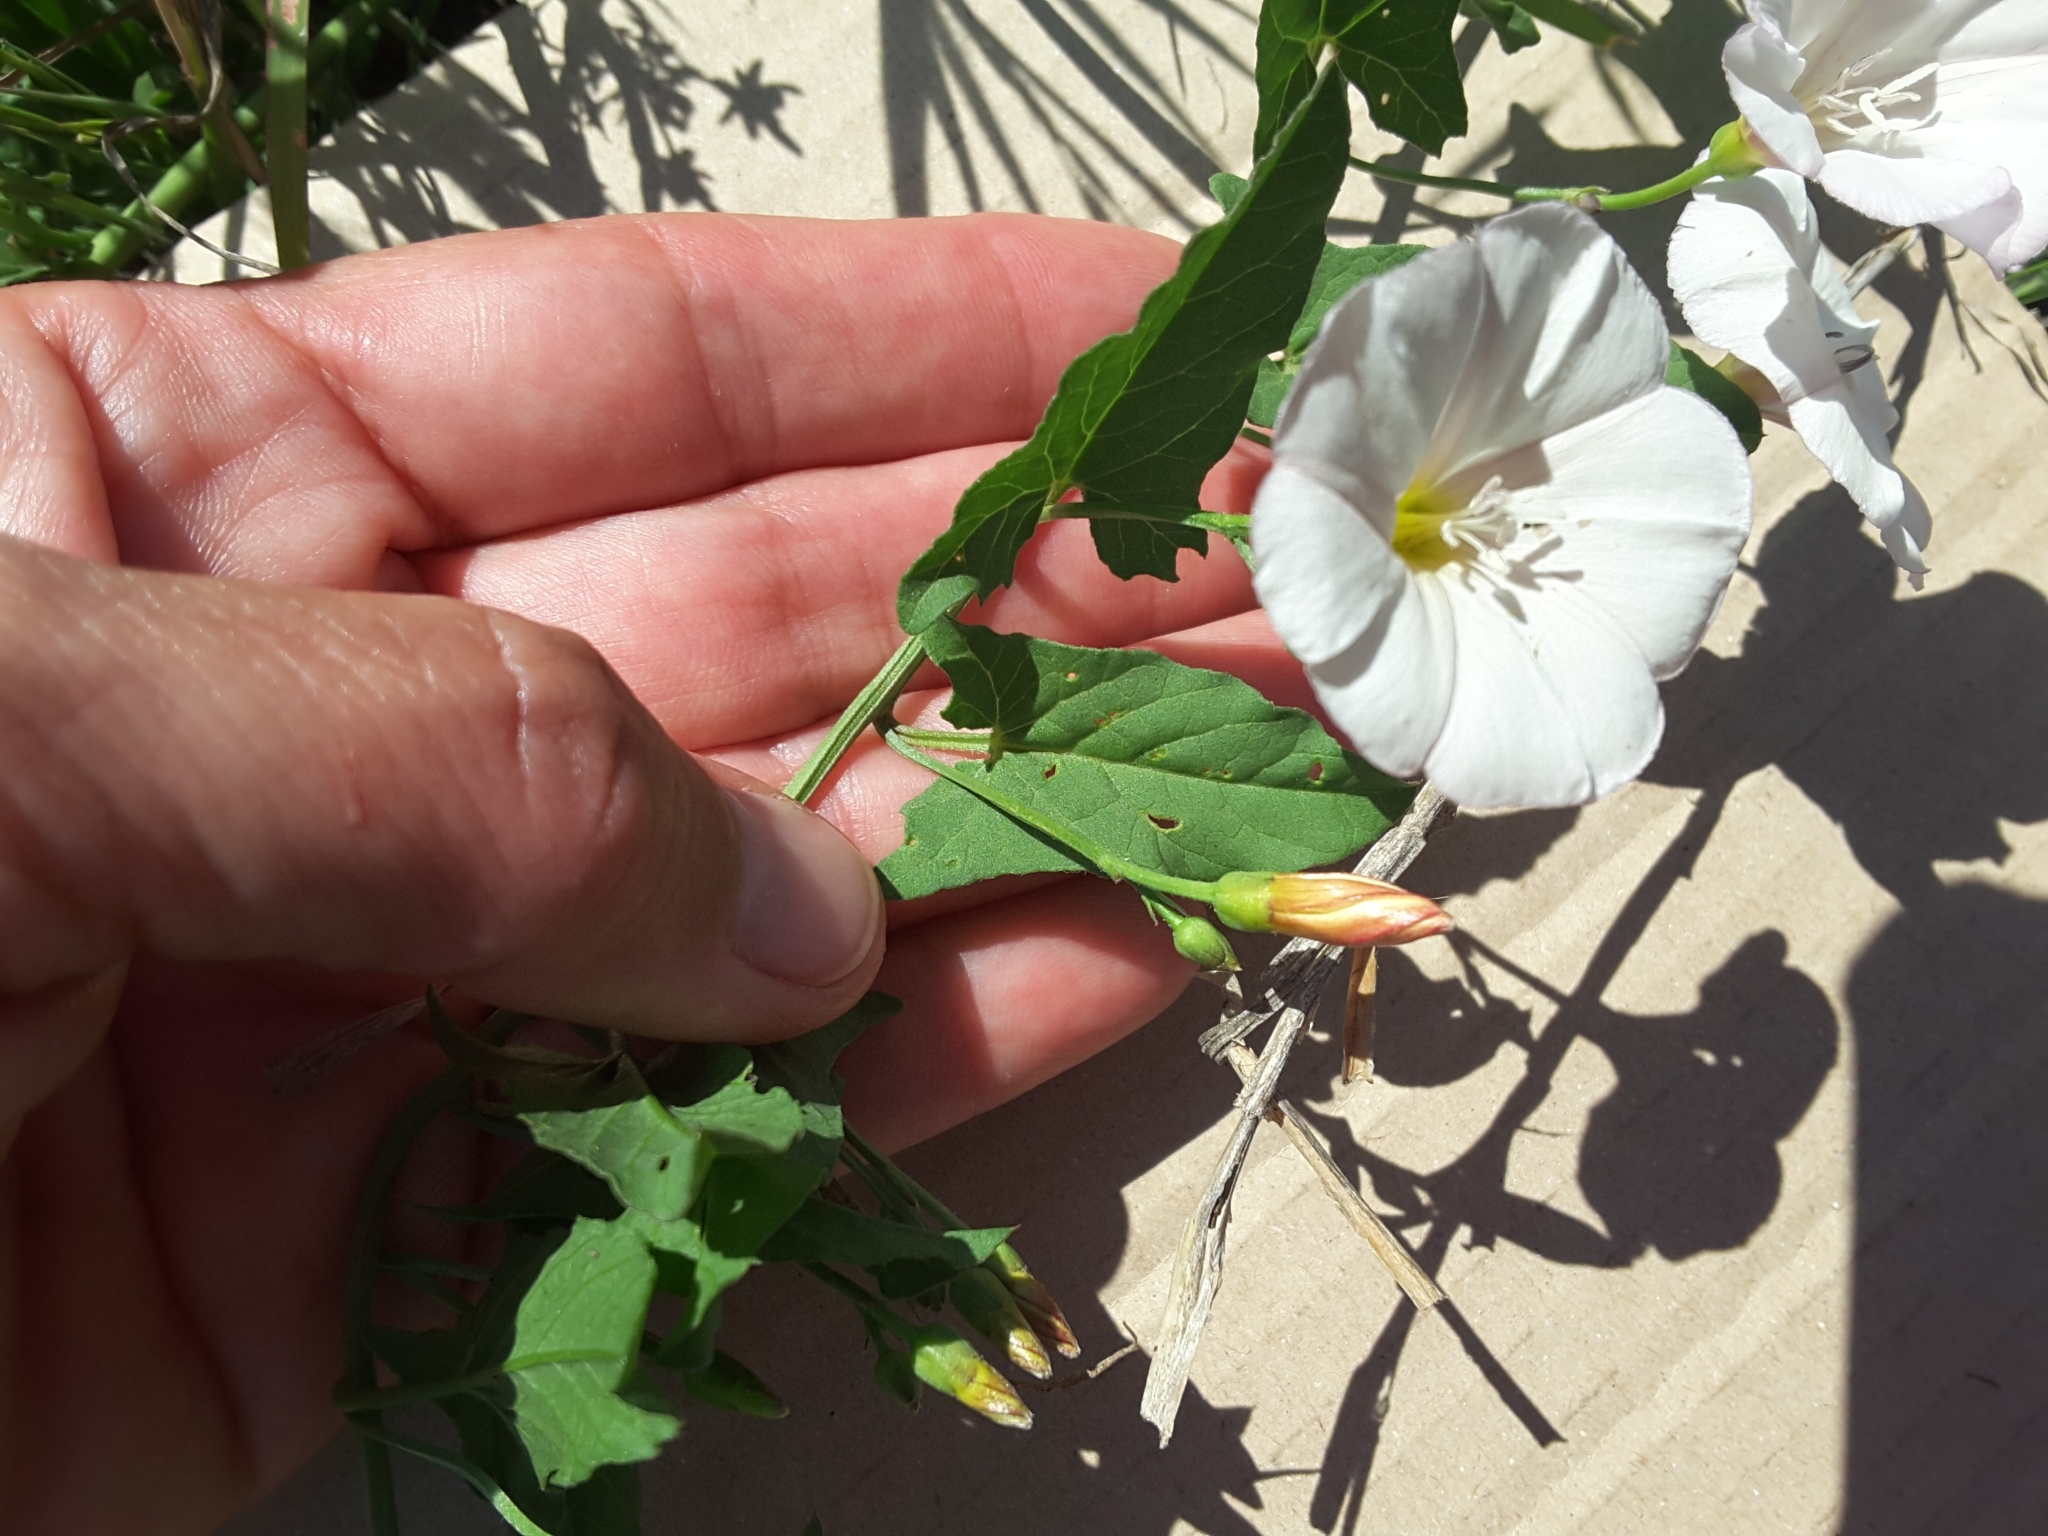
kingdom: Plantae
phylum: Tracheophyta
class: Magnoliopsida
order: Solanales
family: Convolvulaceae
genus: Convolvulus
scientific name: Convolvulus arvensis
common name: Field bindweed
